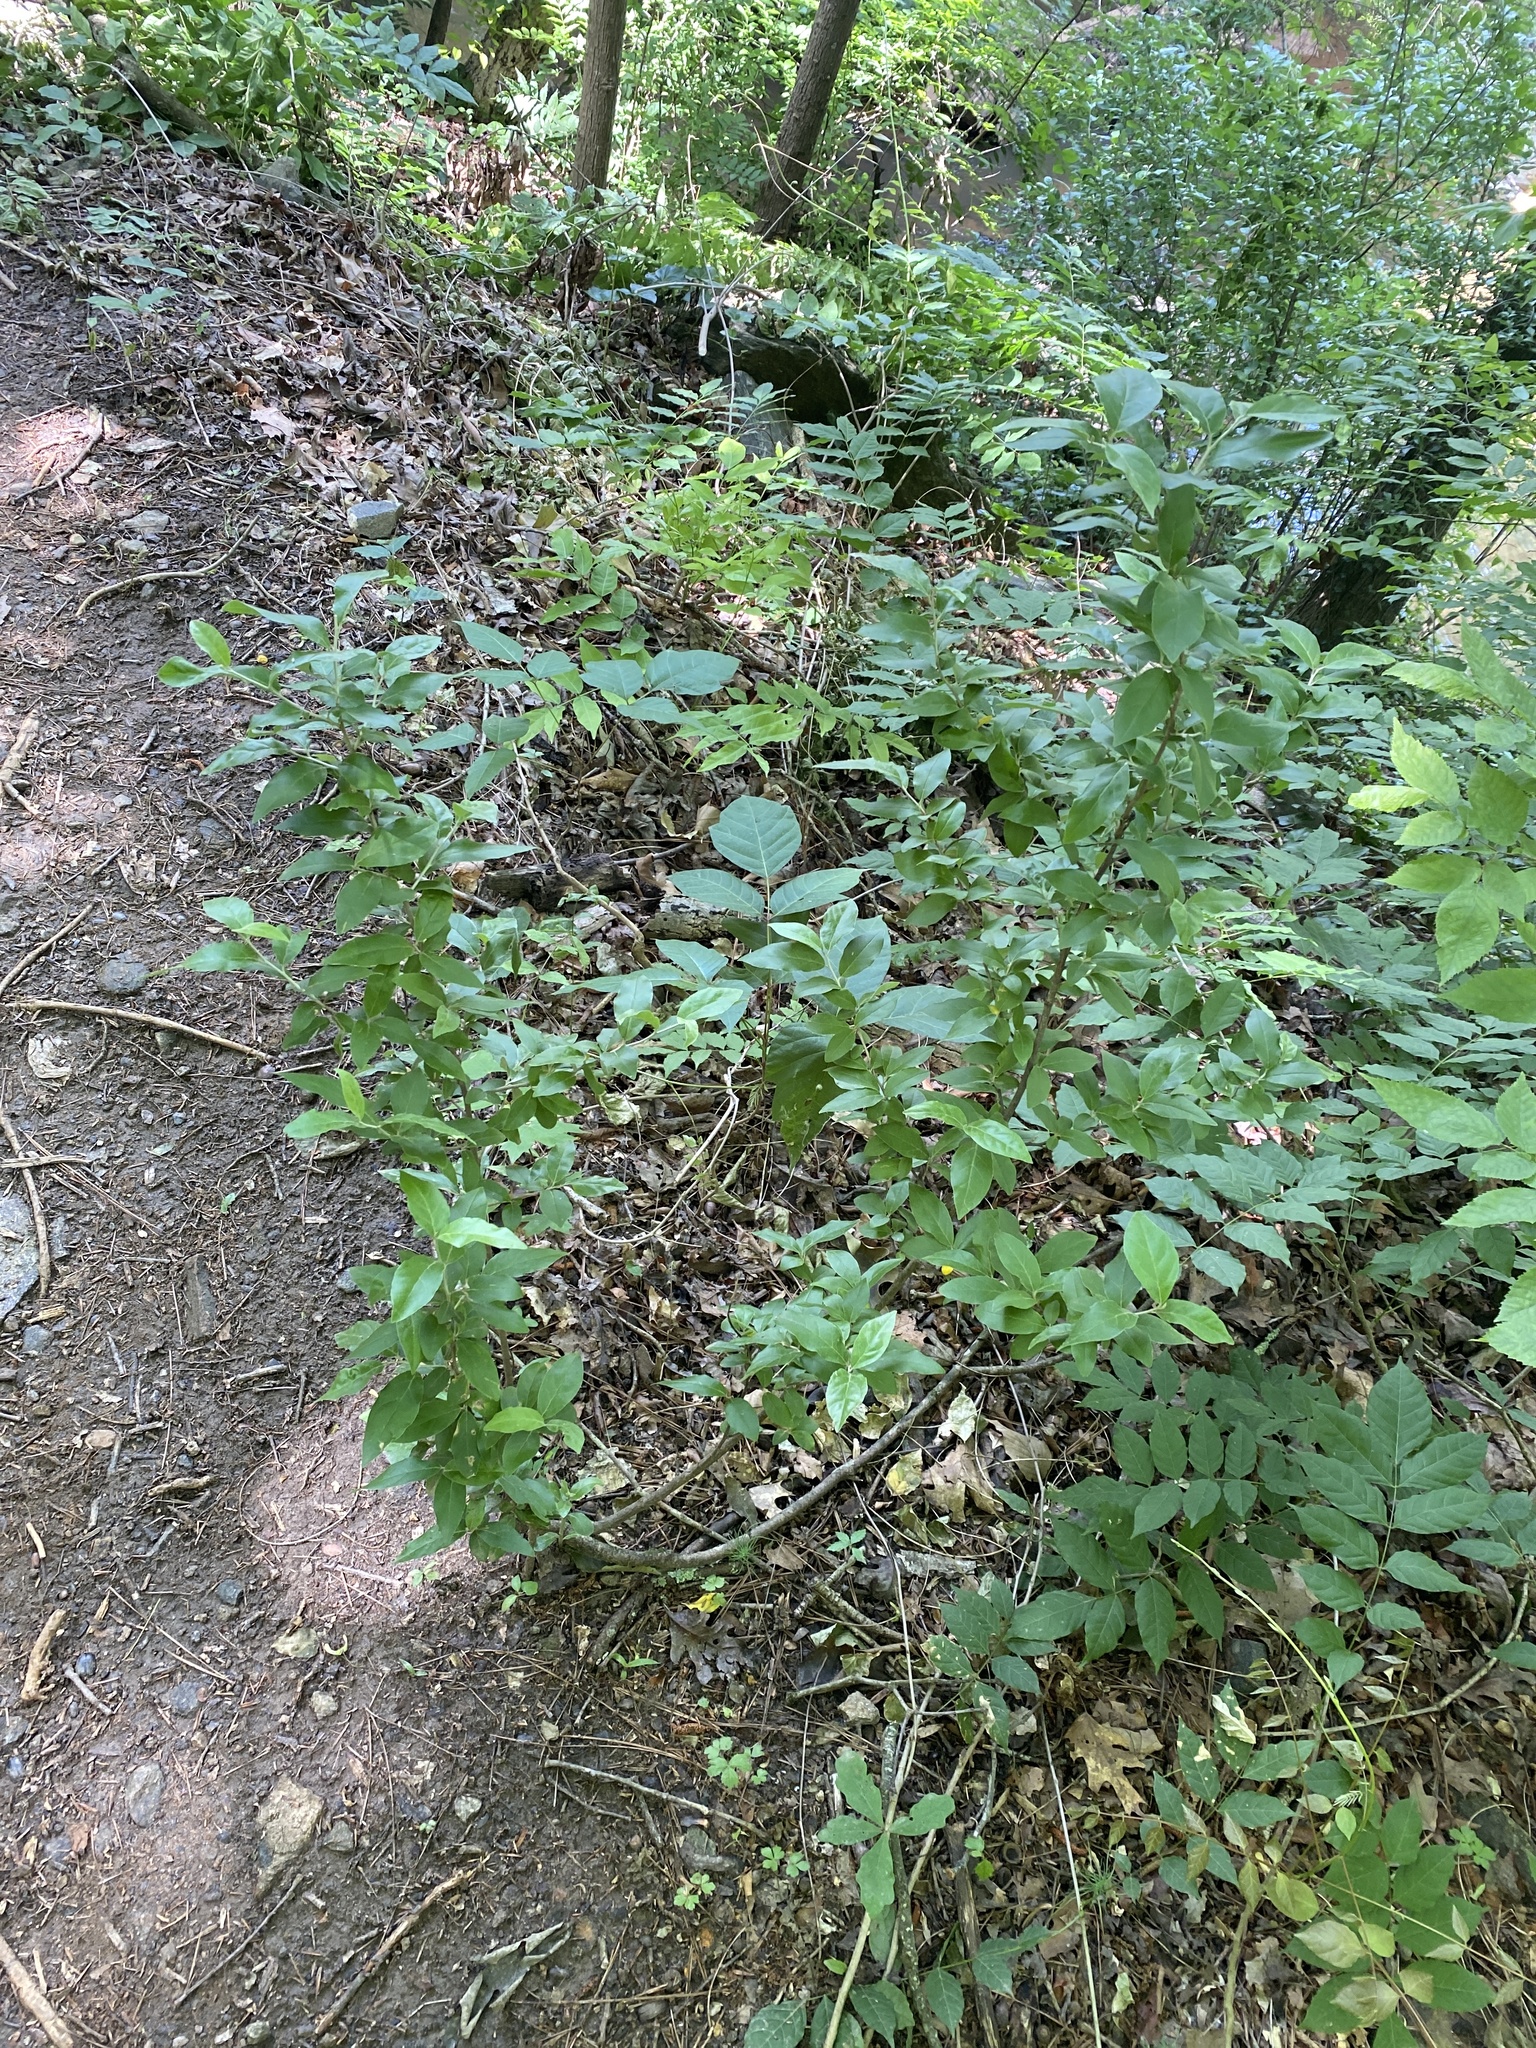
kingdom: Plantae
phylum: Tracheophyta
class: Magnoliopsida
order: Rosales
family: Elaeagnaceae
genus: Elaeagnus
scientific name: Elaeagnus umbellata
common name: Autumn olive
